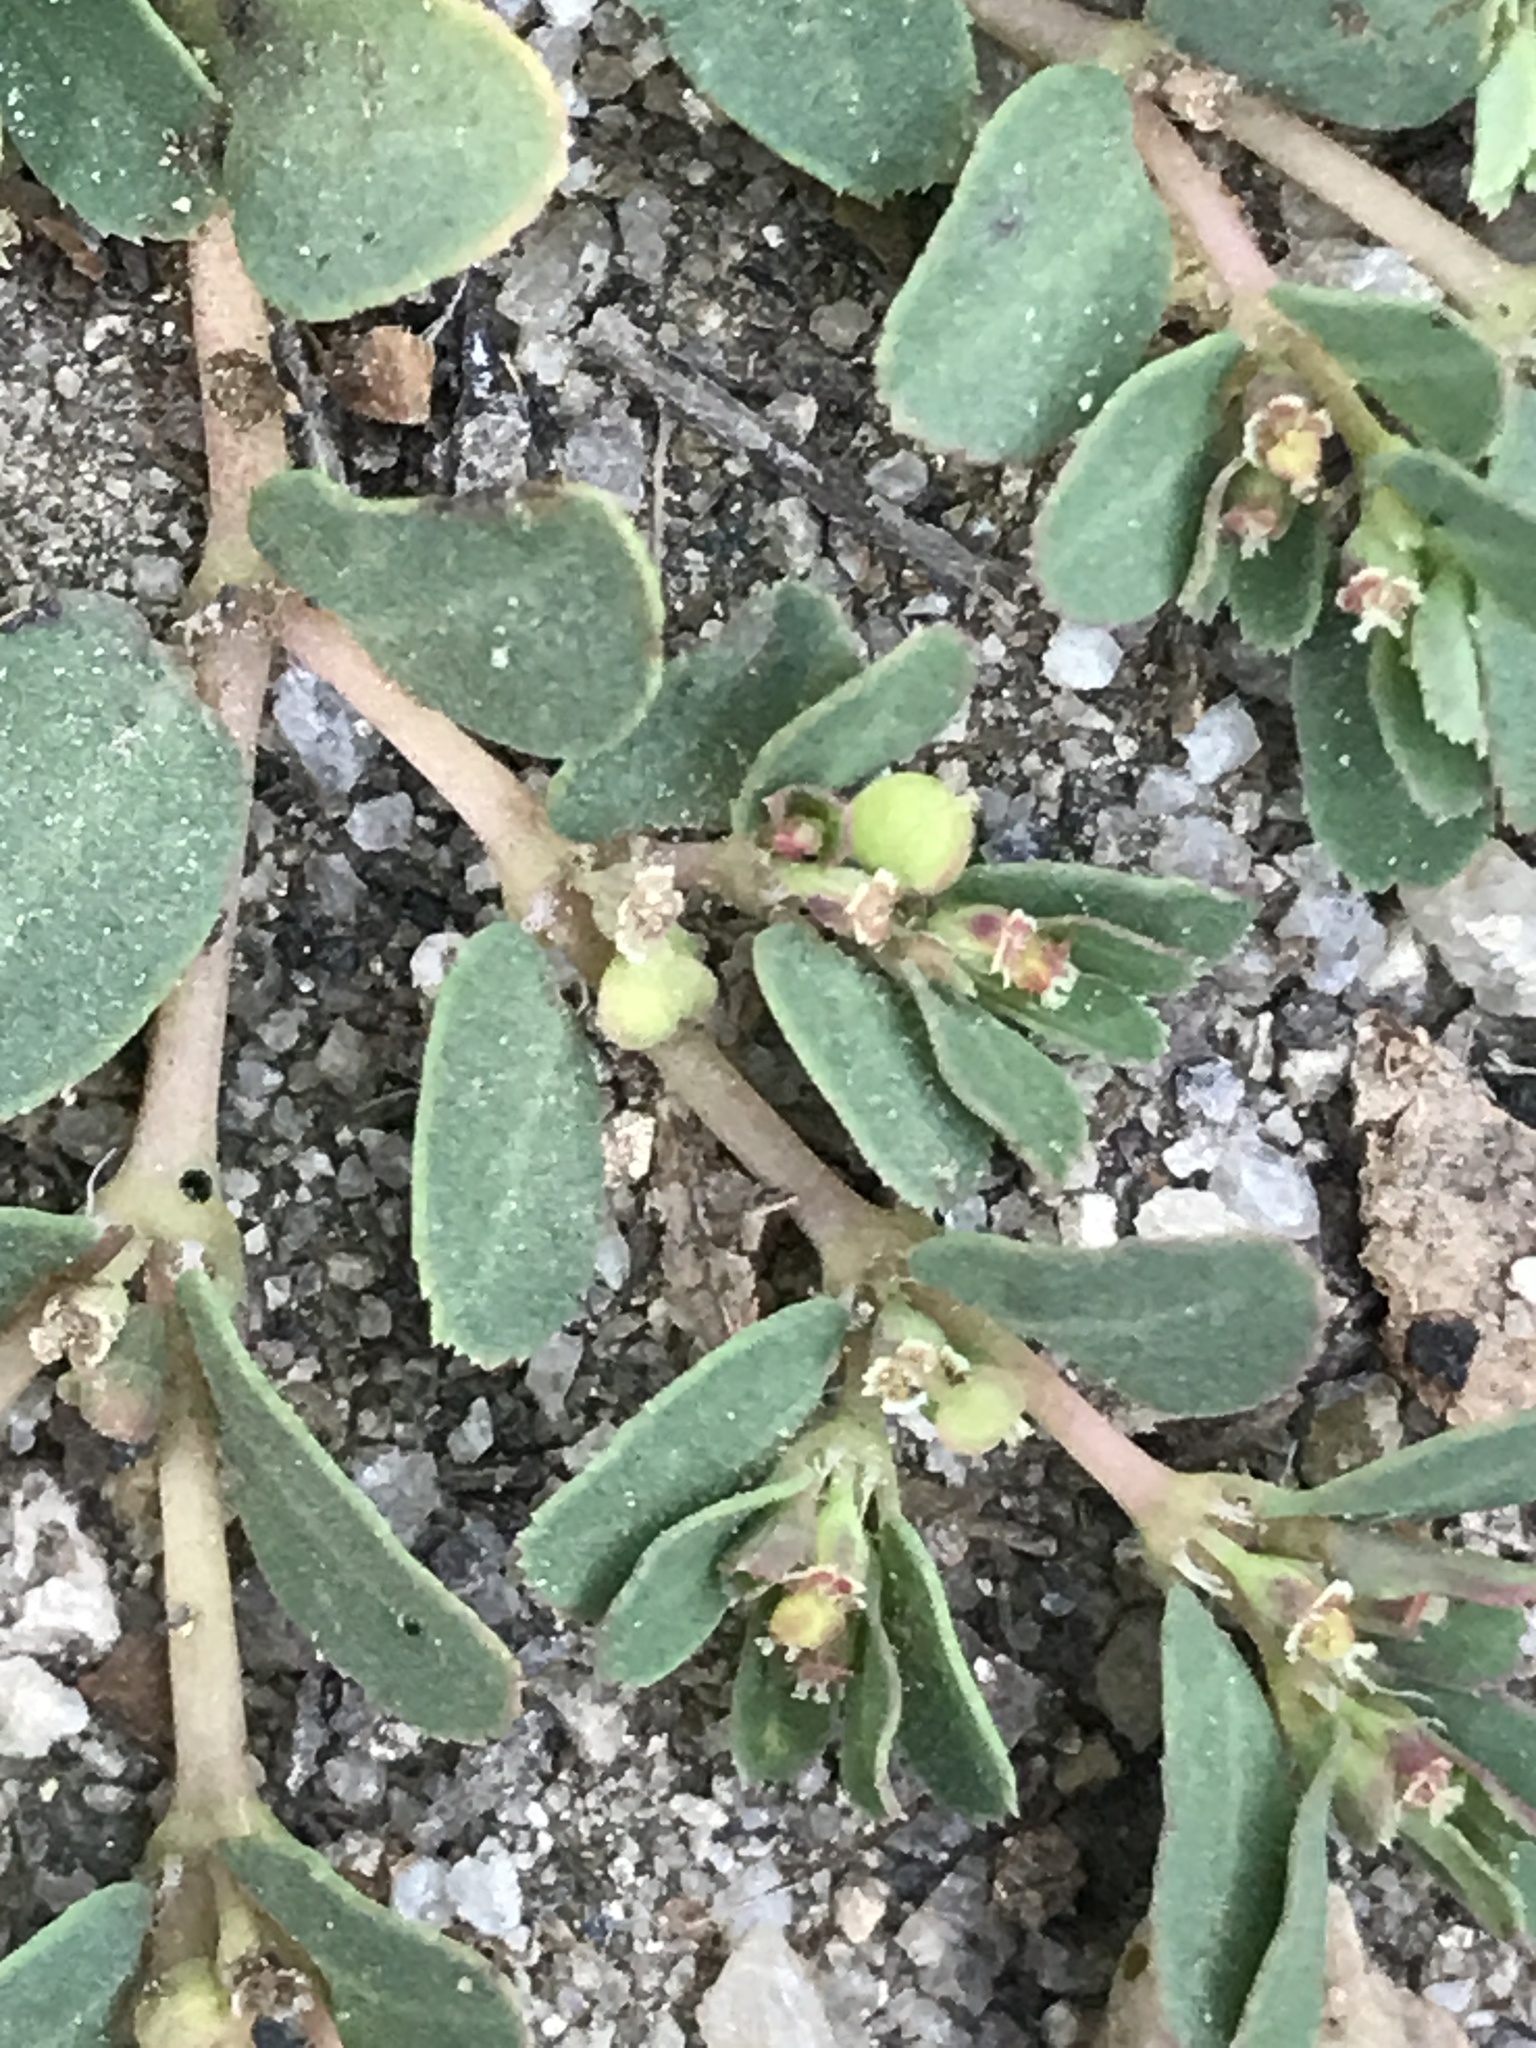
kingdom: Plantae
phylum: Tracheophyta
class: Magnoliopsida
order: Malpighiales
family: Euphorbiaceae
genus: Euphorbia
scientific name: Euphorbia serpillifolia
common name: Thyme-leaf spurge
